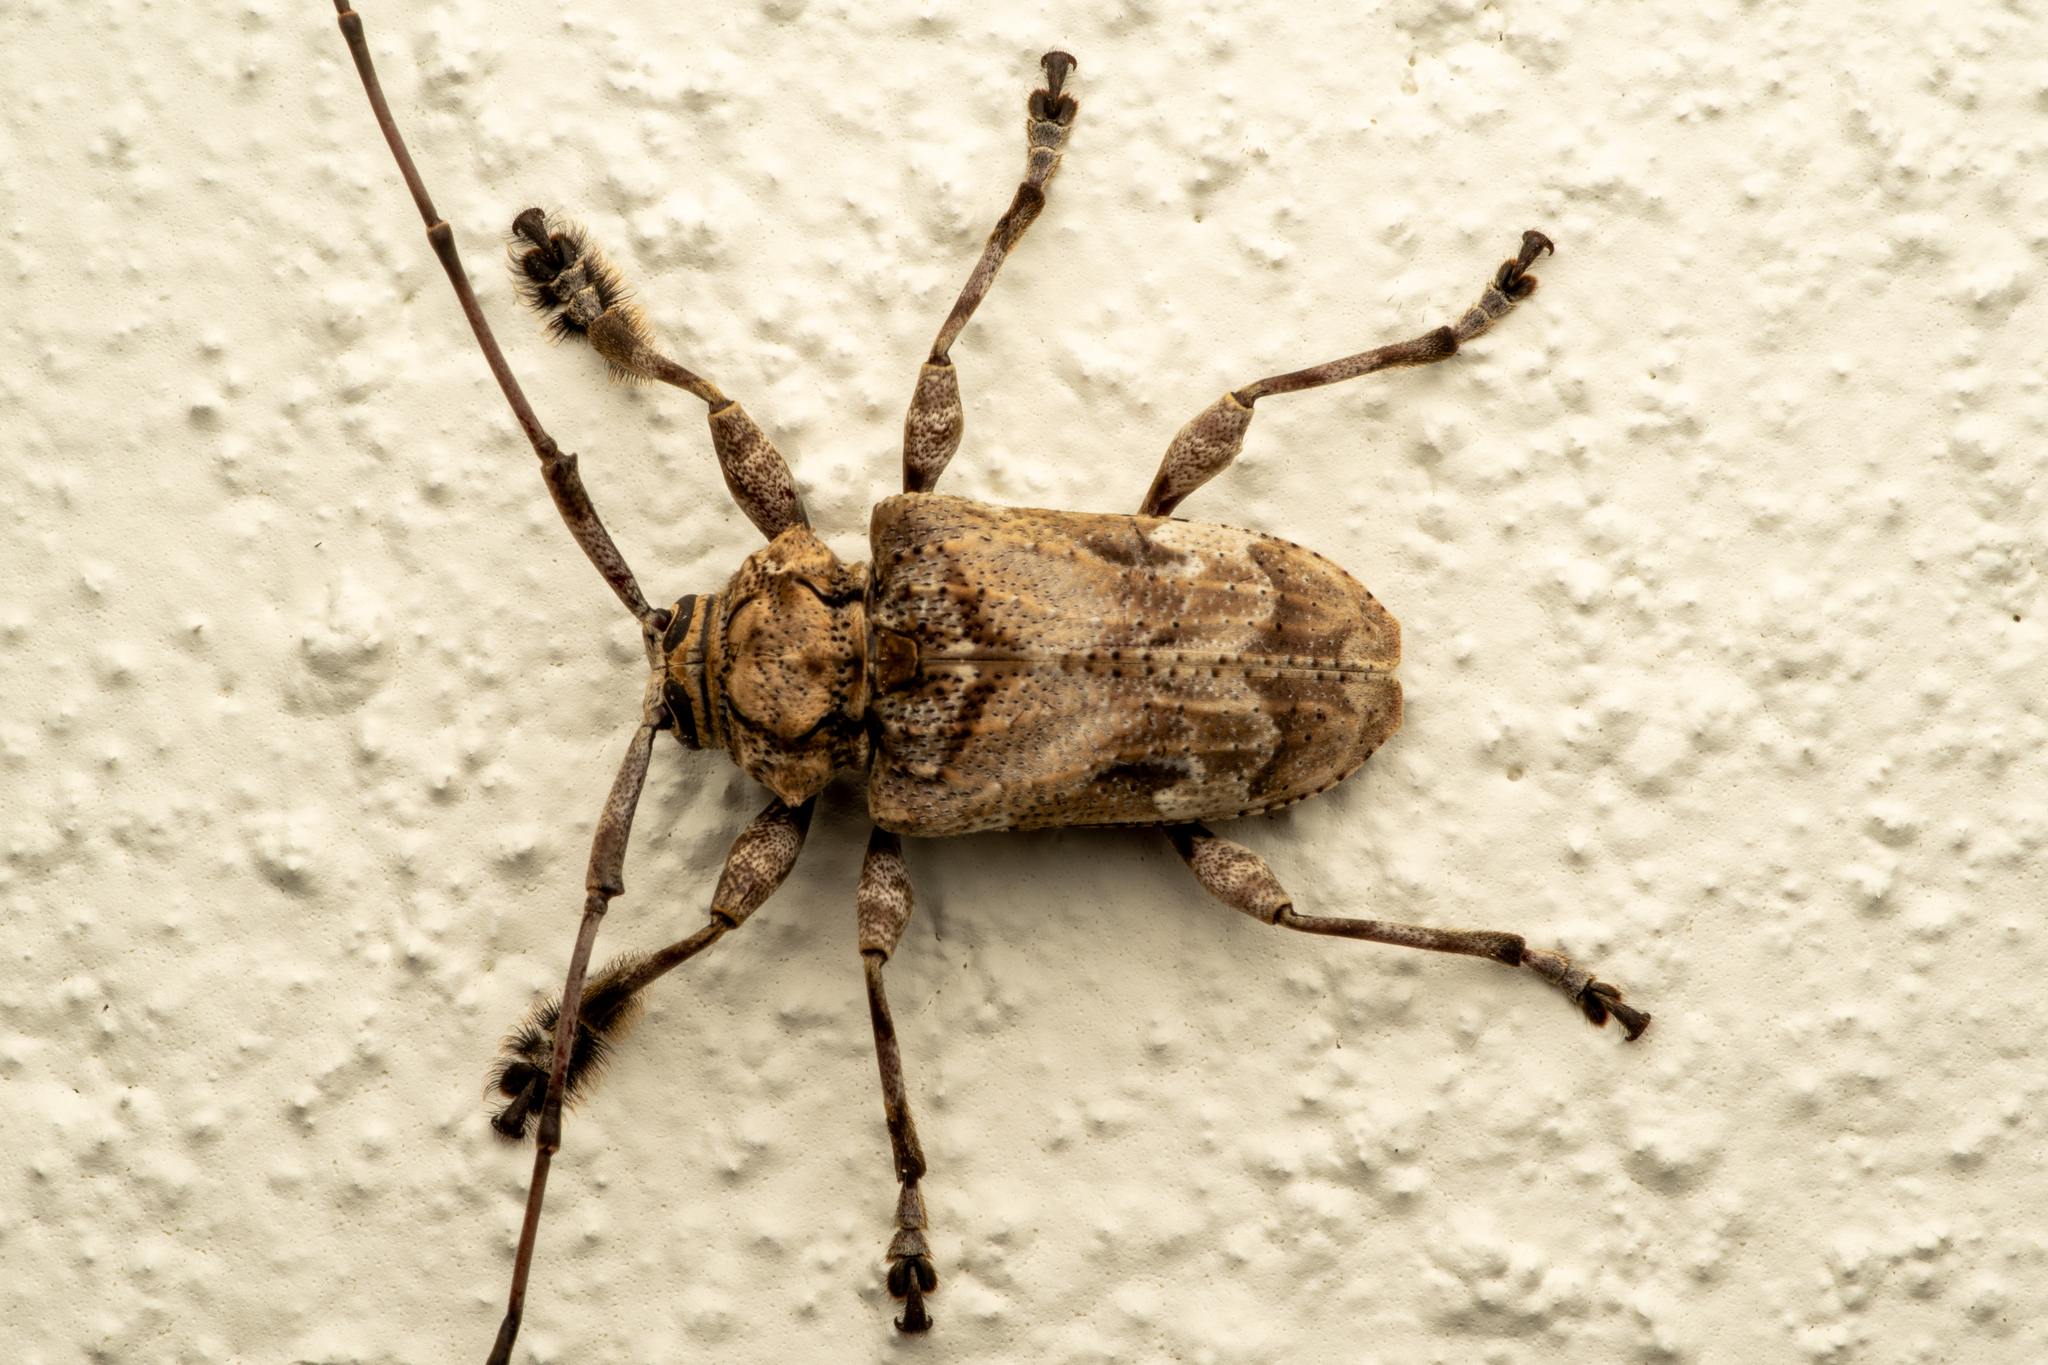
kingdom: Animalia
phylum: Arthropoda
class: Insecta
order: Coleoptera
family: Cerambycidae
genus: Lagocheirus
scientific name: Lagocheirus araneiformis
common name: Beetle
